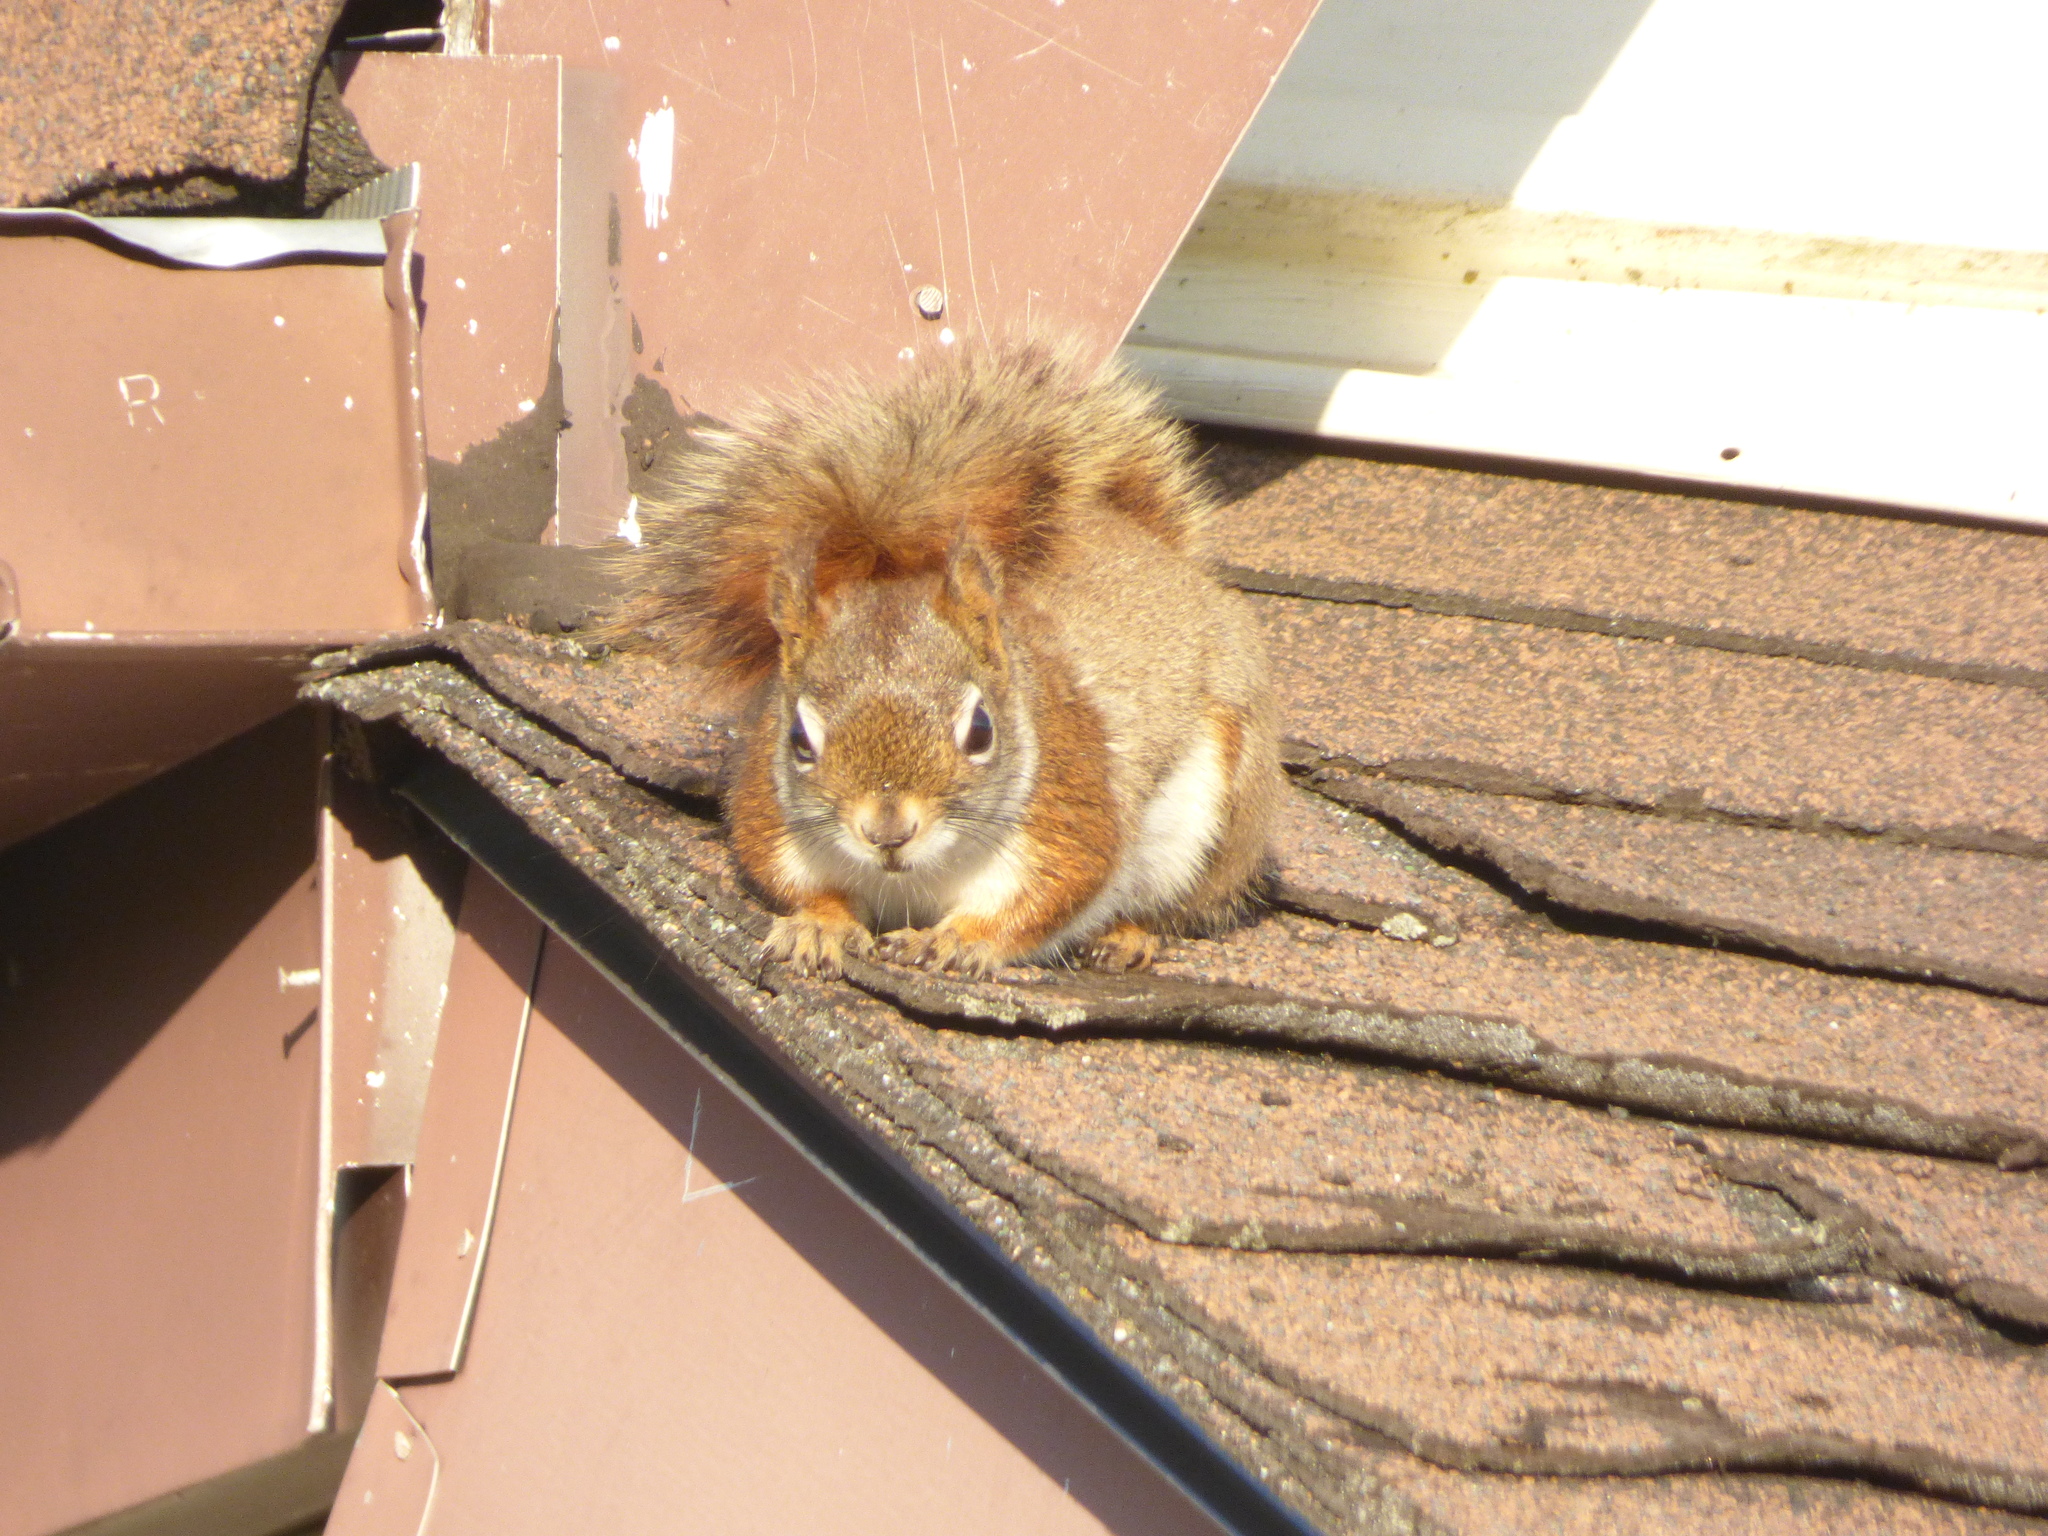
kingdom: Animalia
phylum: Chordata
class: Mammalia
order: Rodentia
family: Sciuridae
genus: Tamiasciurus
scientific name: Tamiasciurus hudsonicus
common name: Red squirrel
